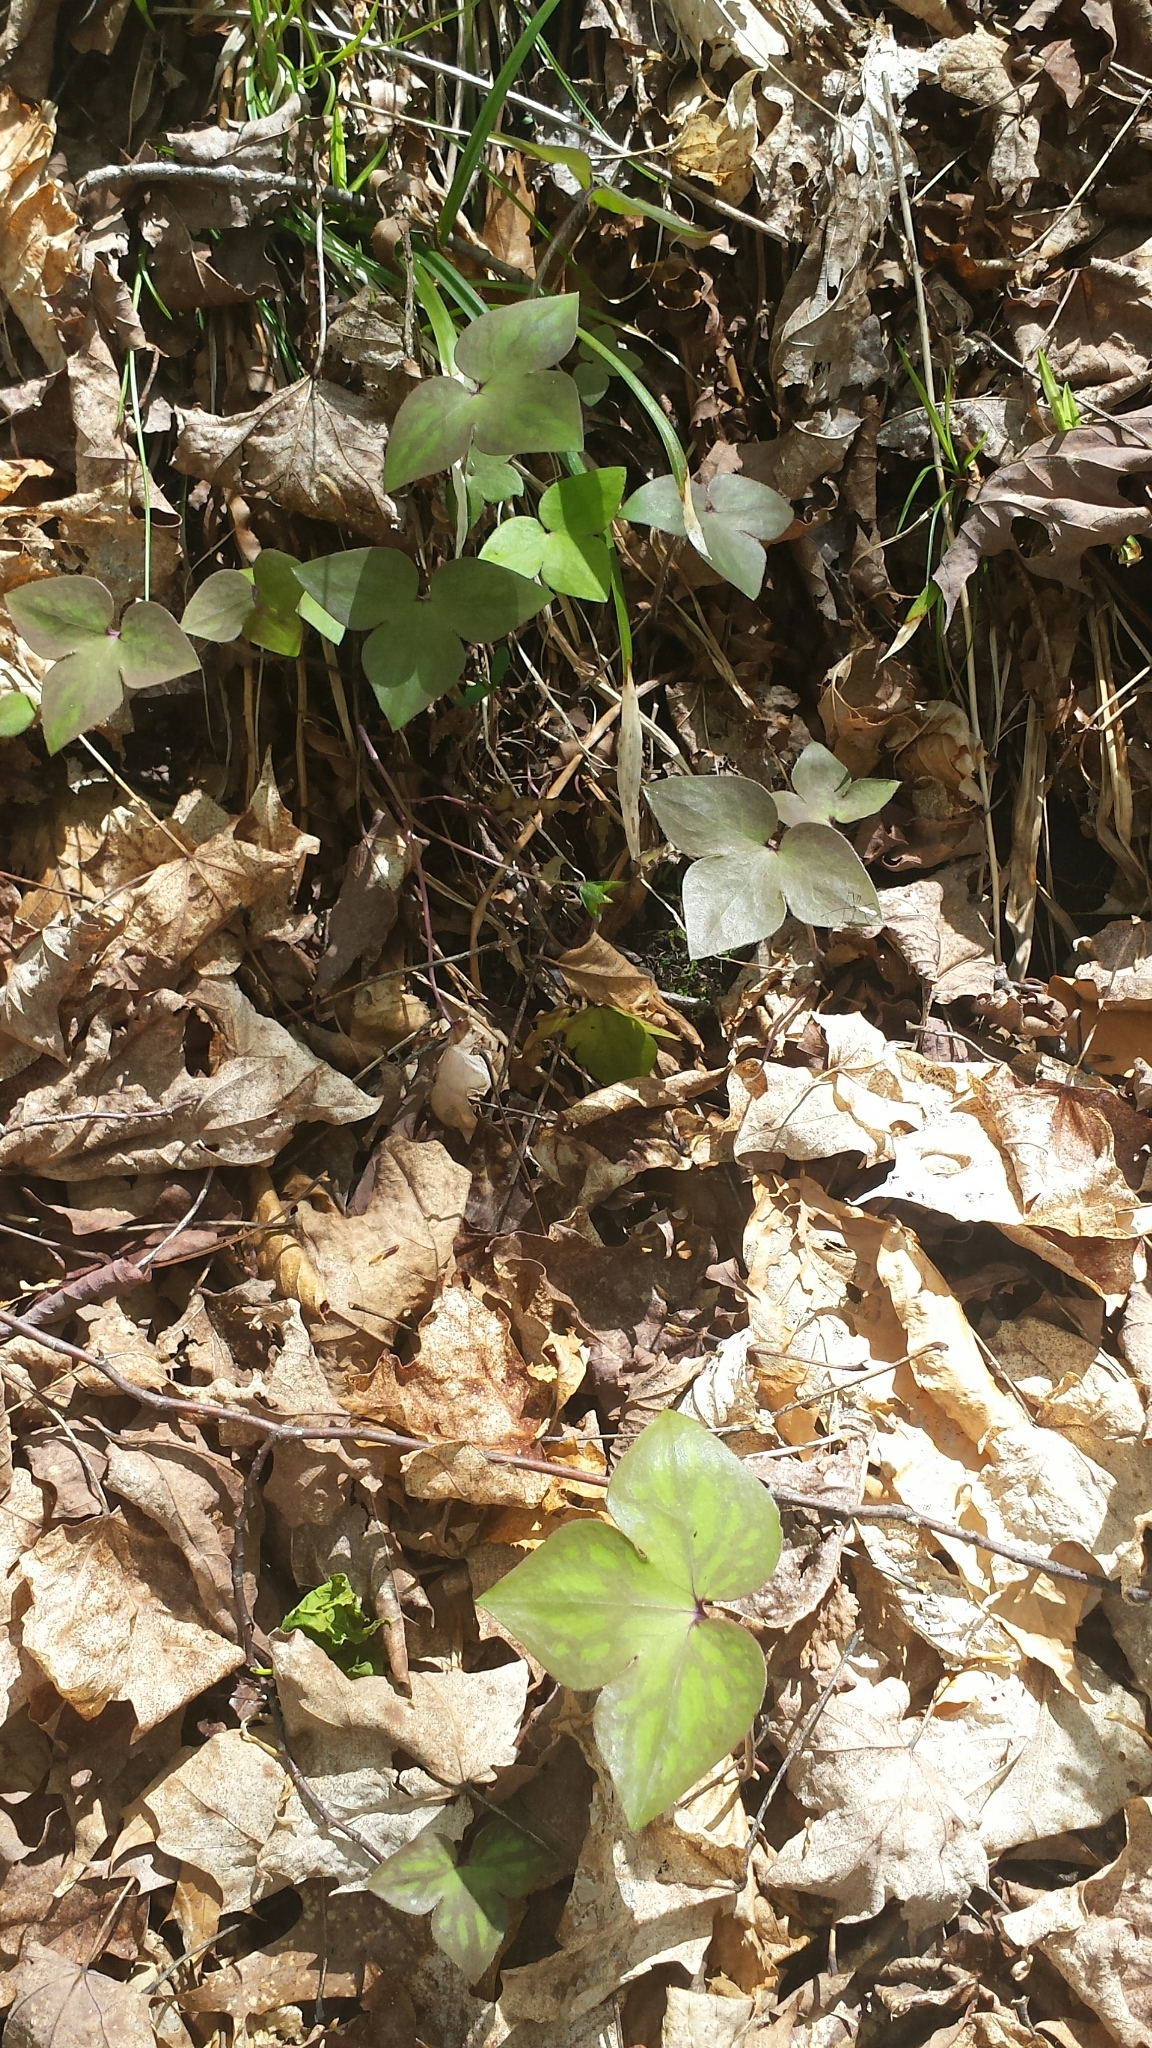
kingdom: Plantae
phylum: Tracheophyta
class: Magnoliopsida
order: Ranunculales
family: Ranunculaceae
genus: Hepatica
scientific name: Hepatica acutiloba
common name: Sharp-lobed hepatica
